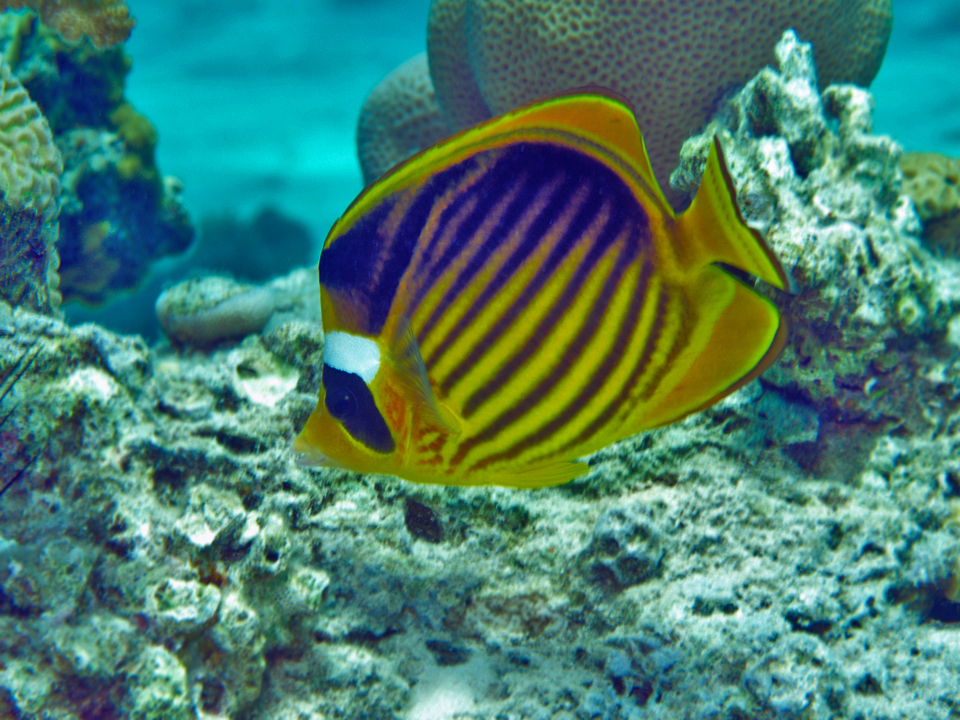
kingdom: Animalia
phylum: Chordata
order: Perciformes
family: Chaetodontidae
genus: Chaetodon
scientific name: Chaetodon fasciatus
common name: Diagonal butterflyfish
